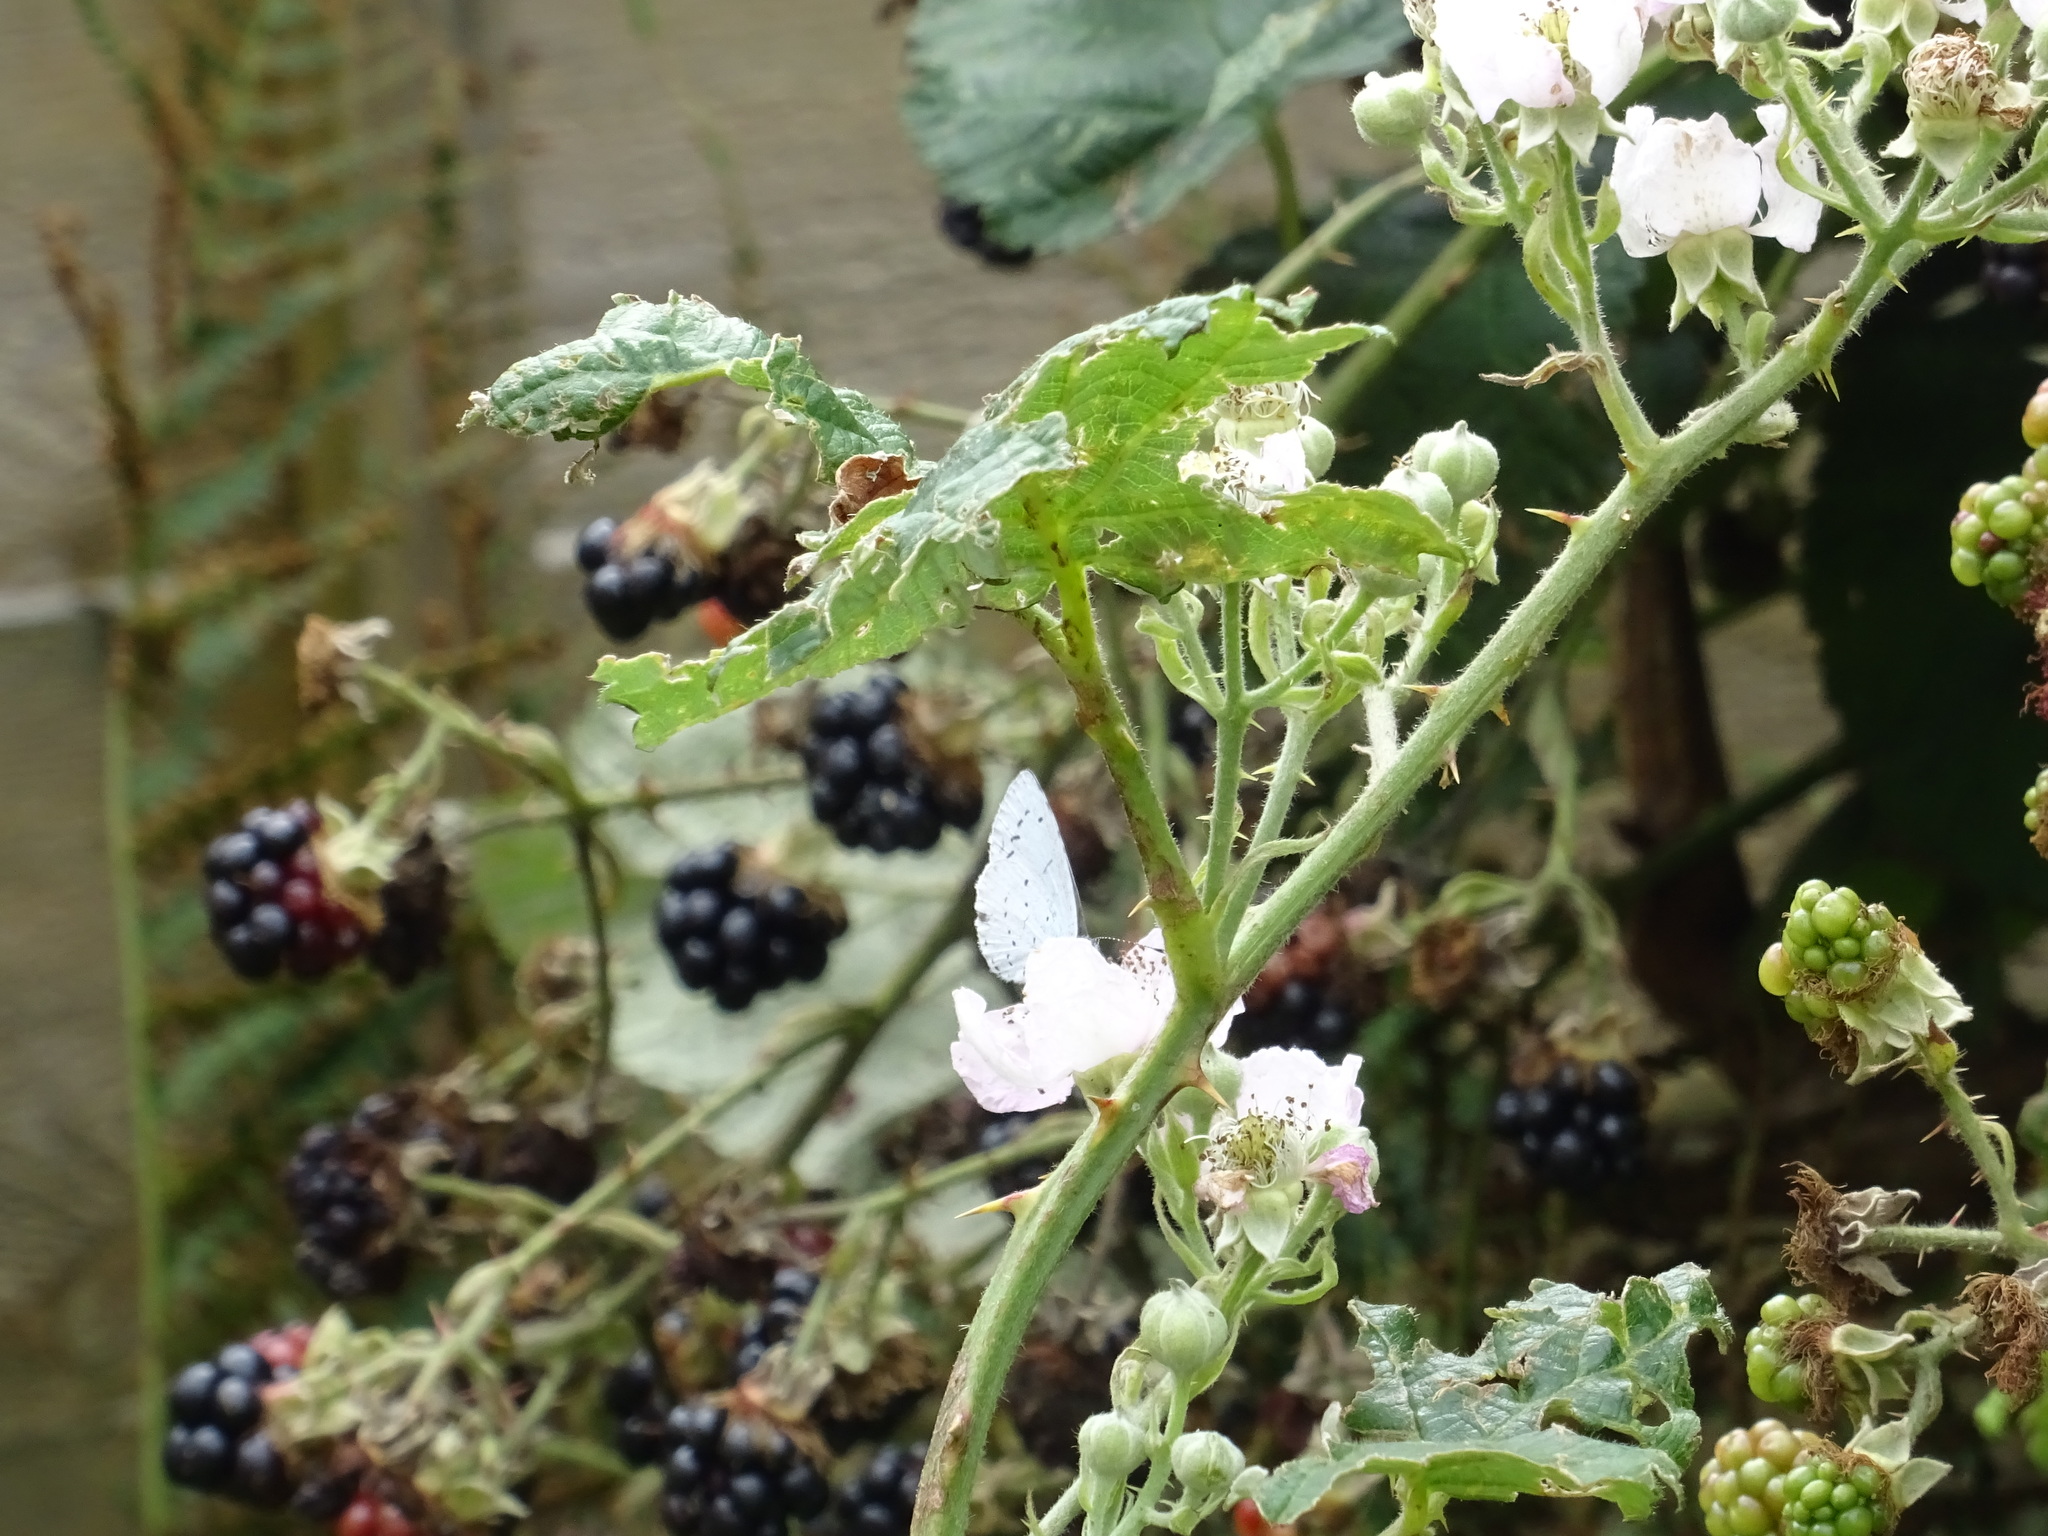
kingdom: Animalia
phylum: Arthropoda
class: Insecta
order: Lepidoptera
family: Lycaenidae
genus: Celastrina
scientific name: Celastrina argiolus
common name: Holly blue
